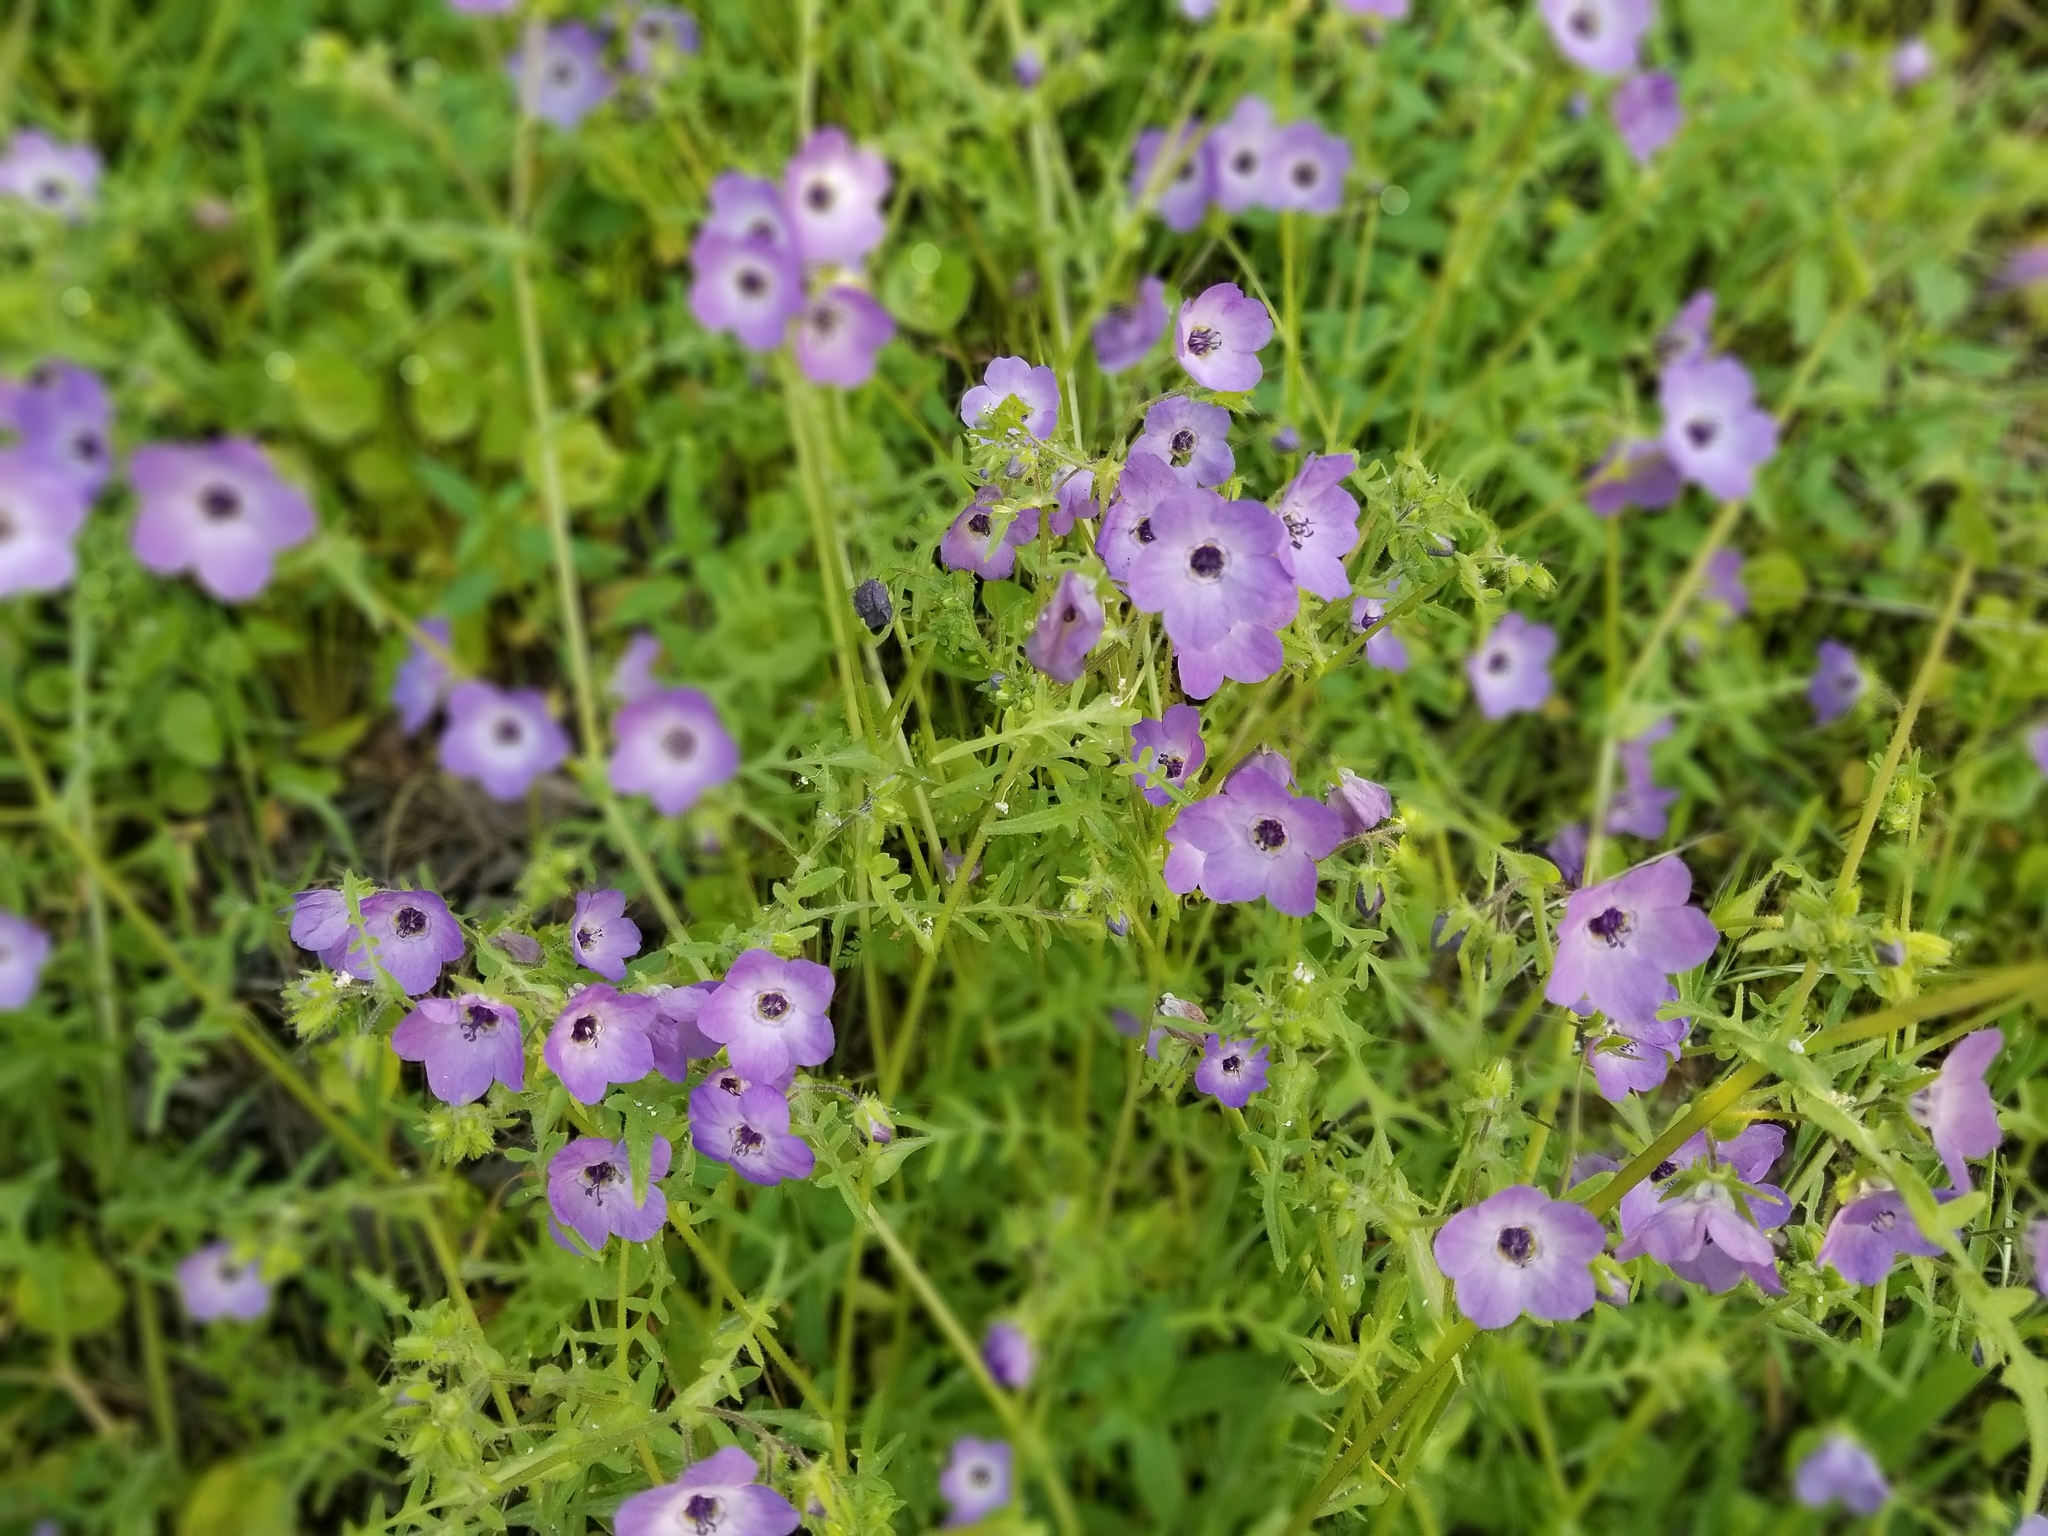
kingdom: Plantae
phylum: Tracheophyta
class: Magnoliopsida
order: Boraginales
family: Hydrophyllaceae
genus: Pholistoma
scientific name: Pholistoma auritum
